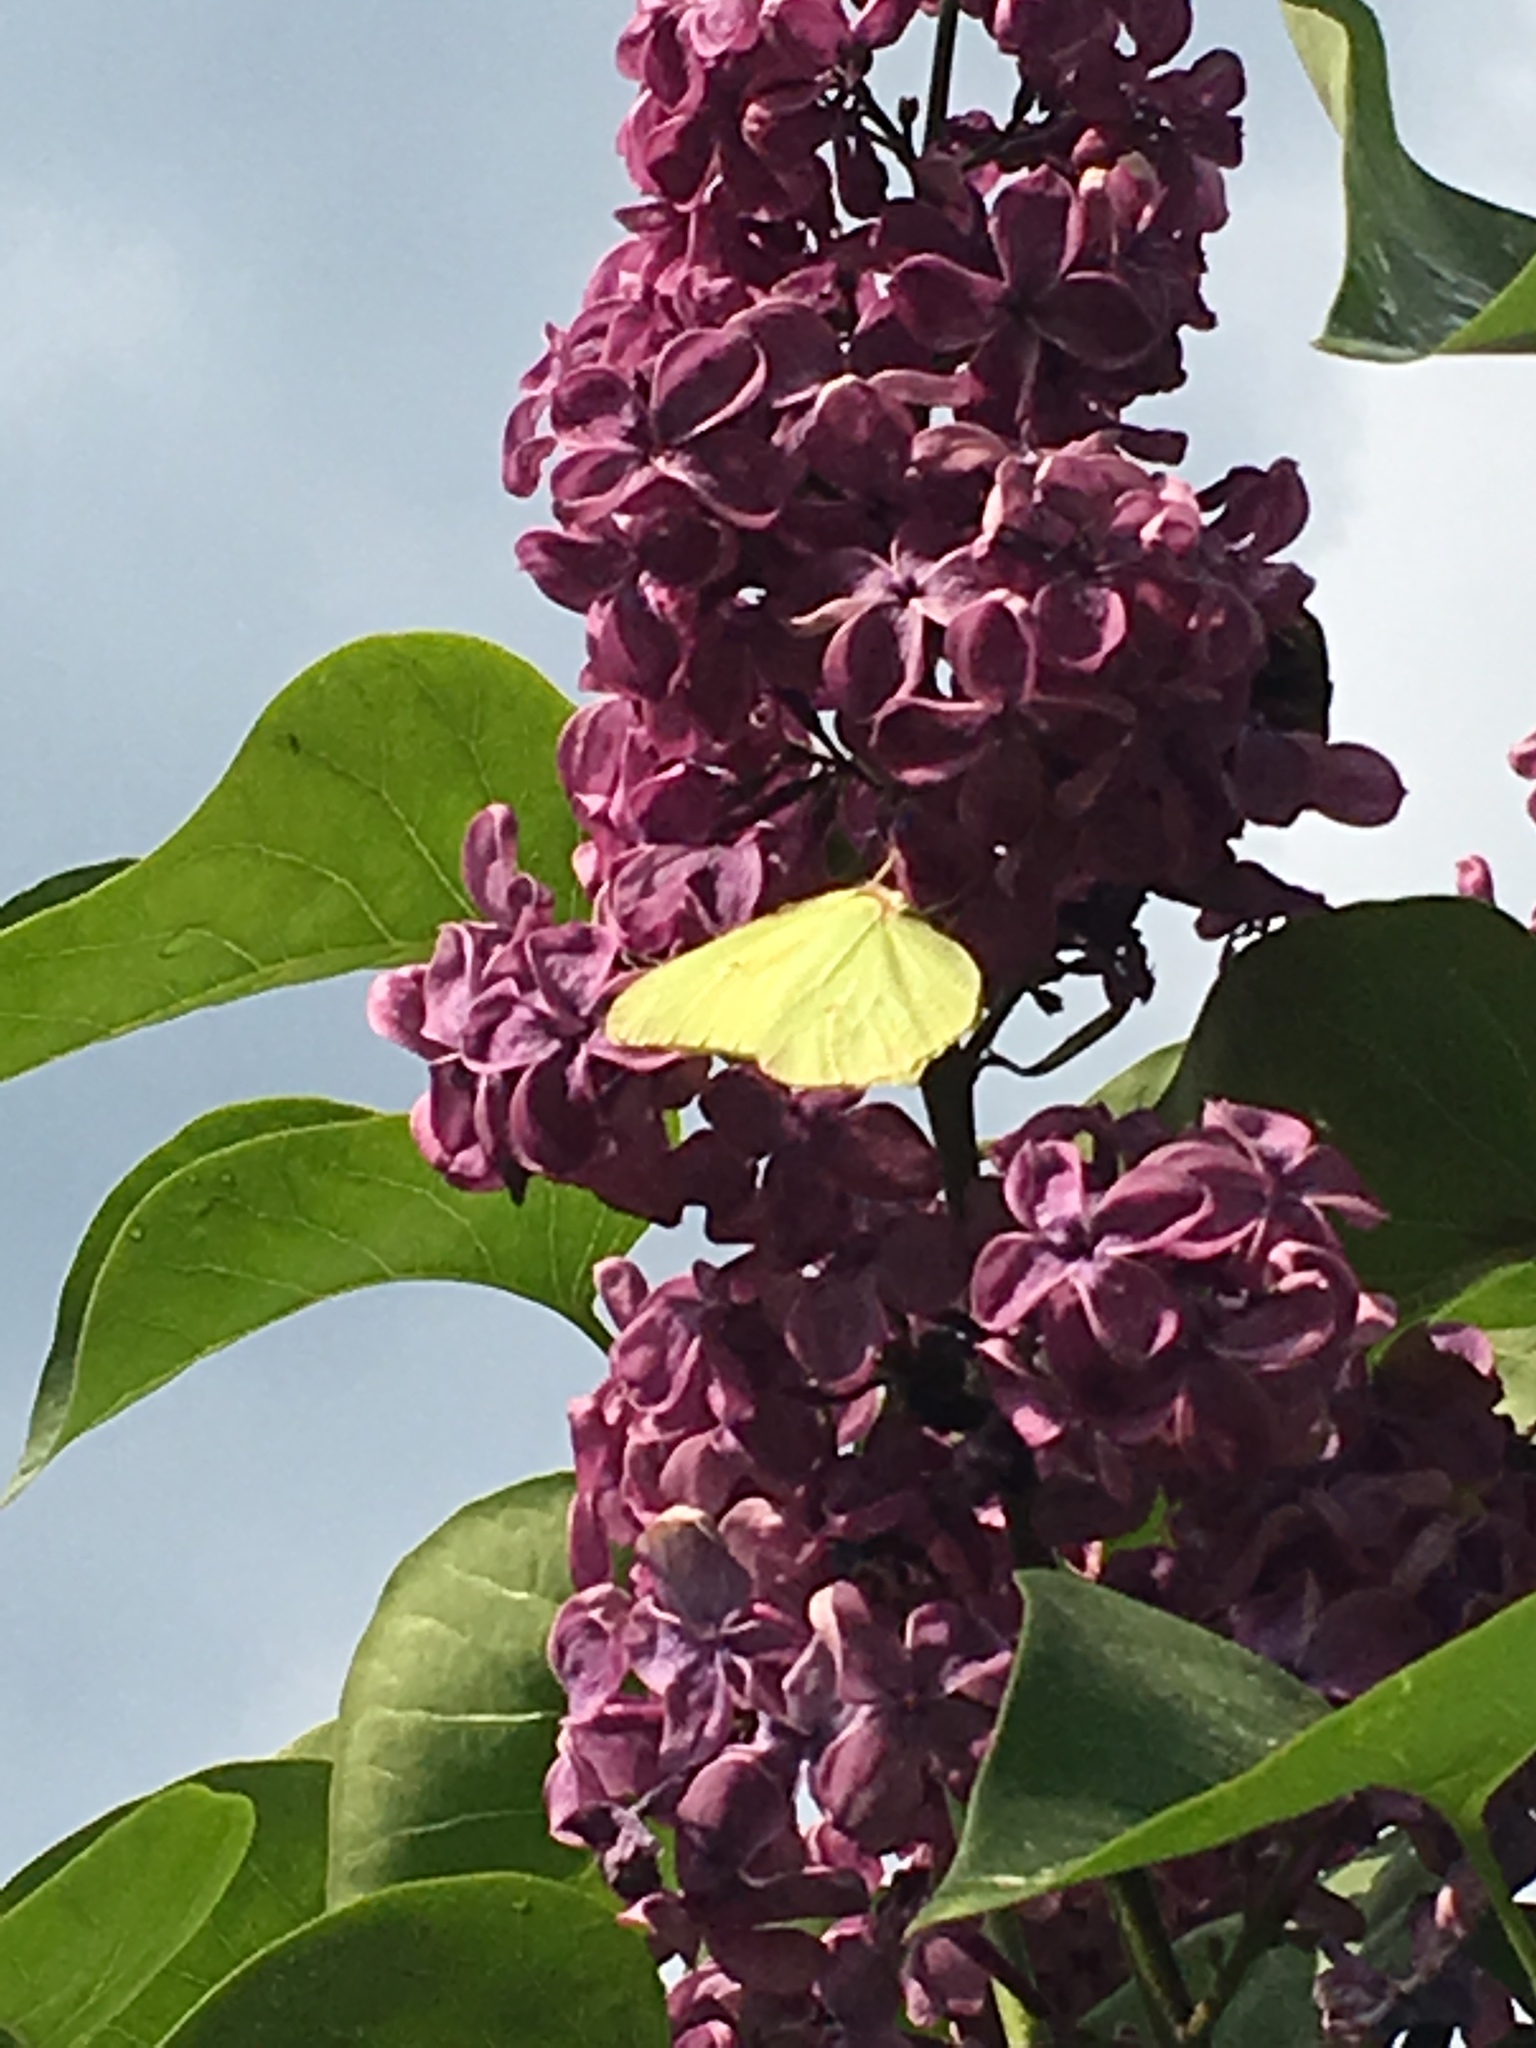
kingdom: Animalia
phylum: Arthropoda
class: Insecta
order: Lepidoptera
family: Pieridae
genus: Gonepteryx
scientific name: Gonepteryx rhamni
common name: Brimstone
